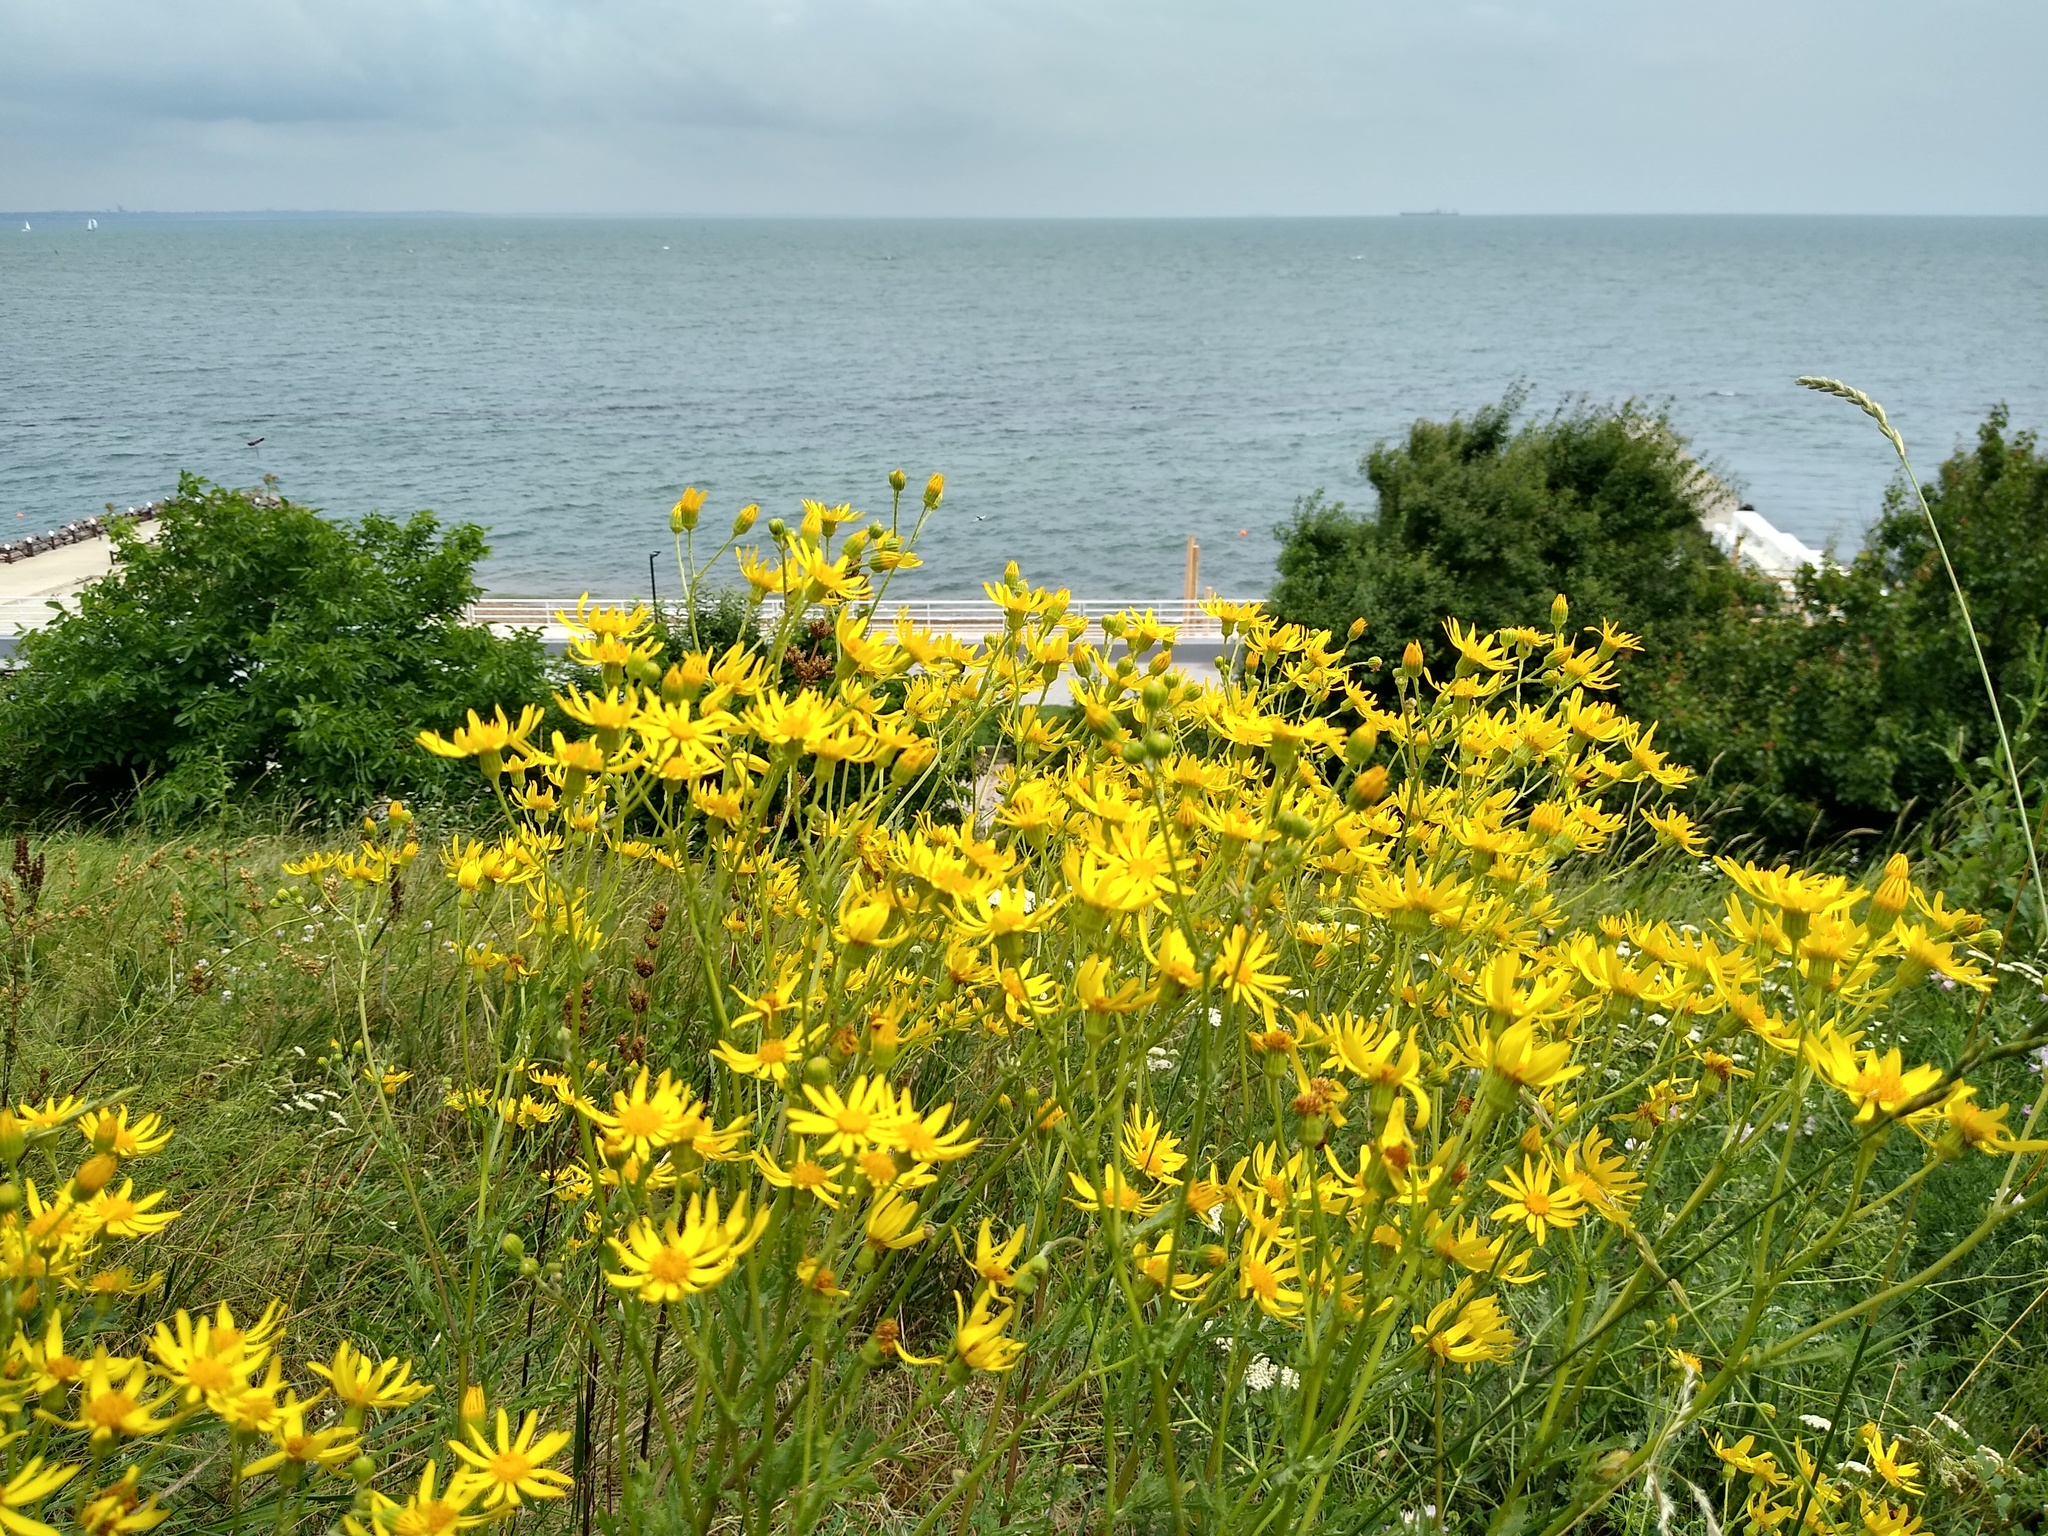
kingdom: Plantae
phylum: Tracheophyta
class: Magnoliopsida
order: Asterales
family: Asteraceae
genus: Jacobaea
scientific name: Jacobaea vulgaris
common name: Stinking willie
